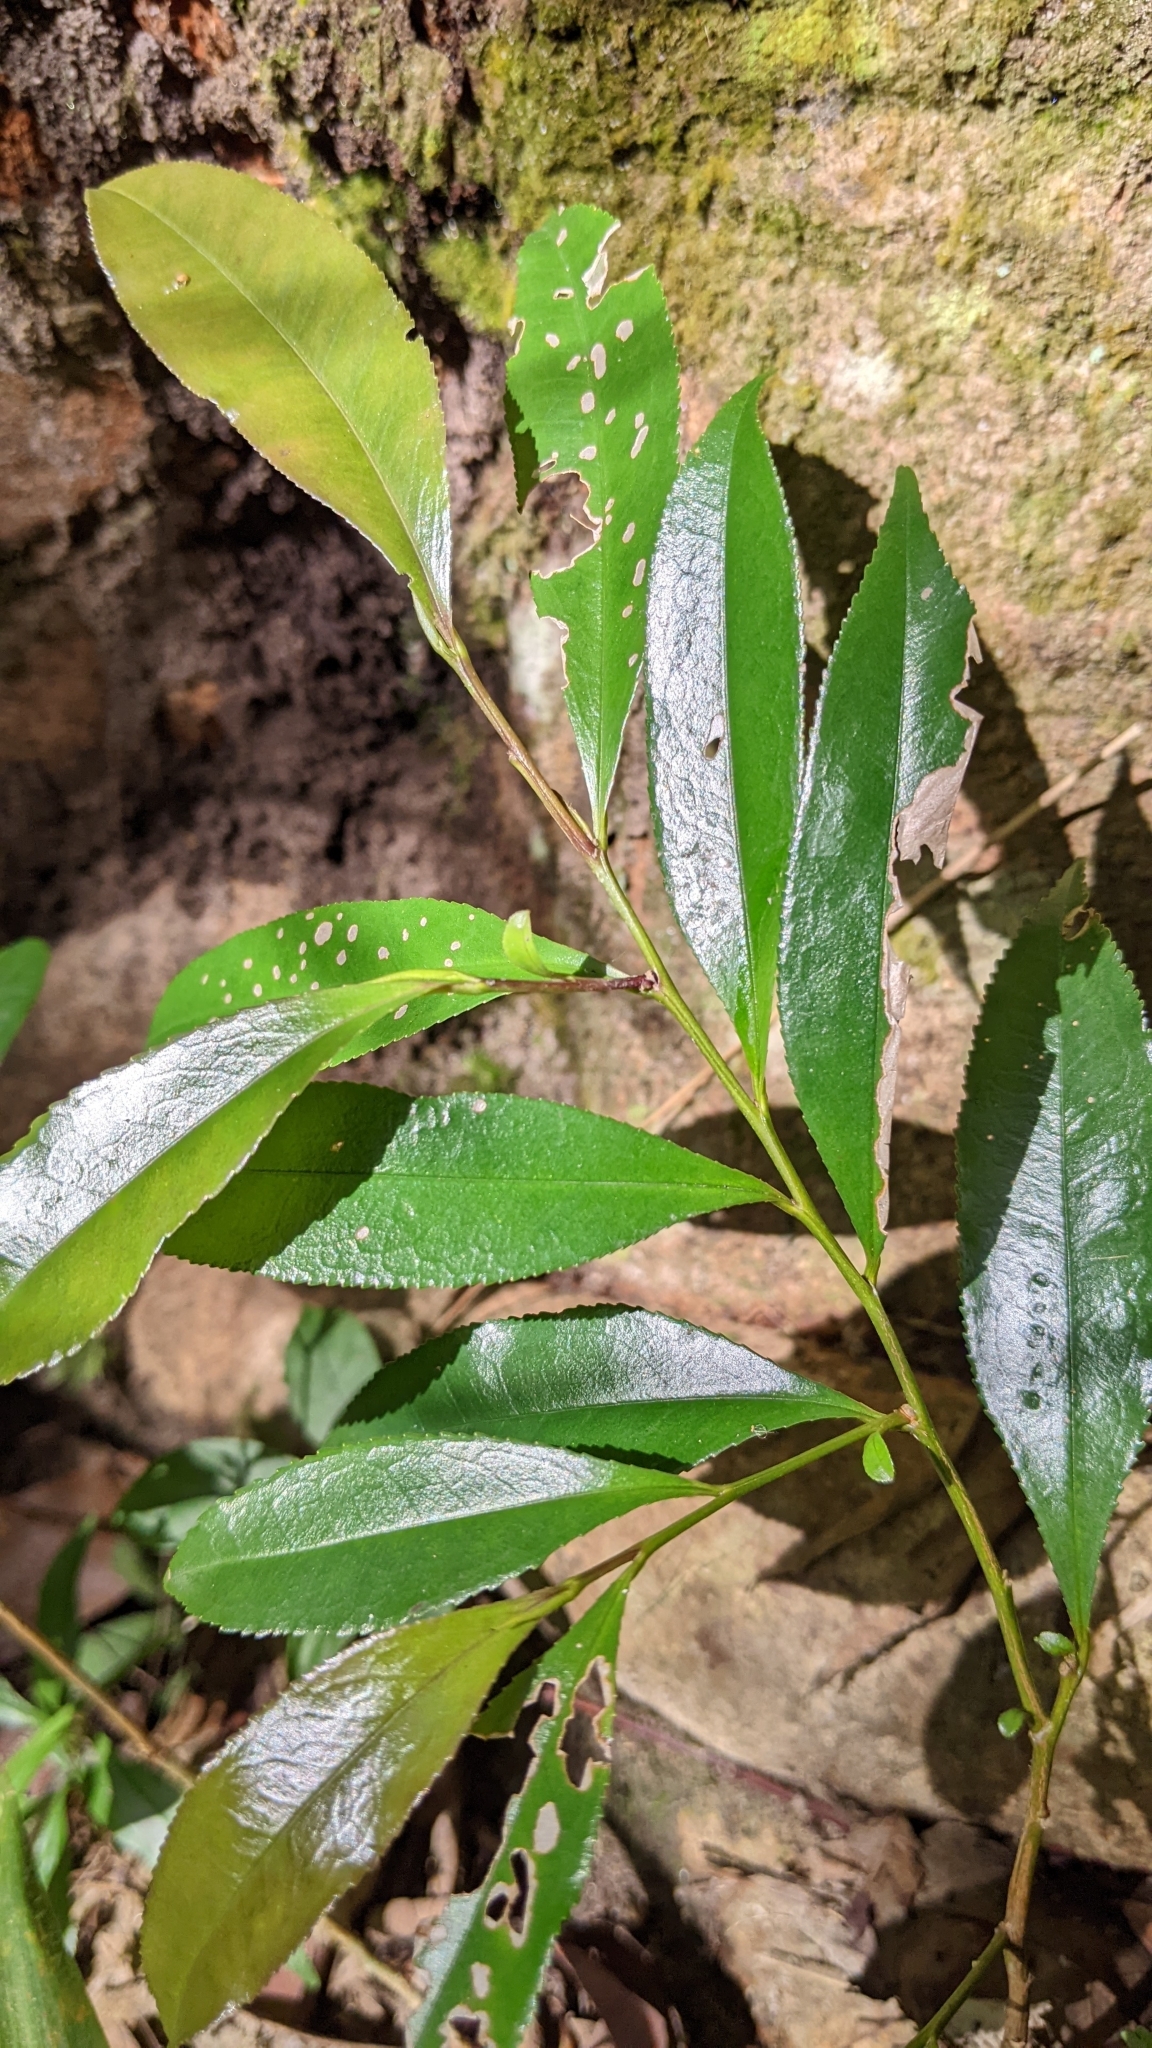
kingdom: Plantae
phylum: Tracheophyta
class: Magnoliopsida
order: Ericales
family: Pentaphylacaceae
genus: Eurya
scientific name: Eurya nitida
